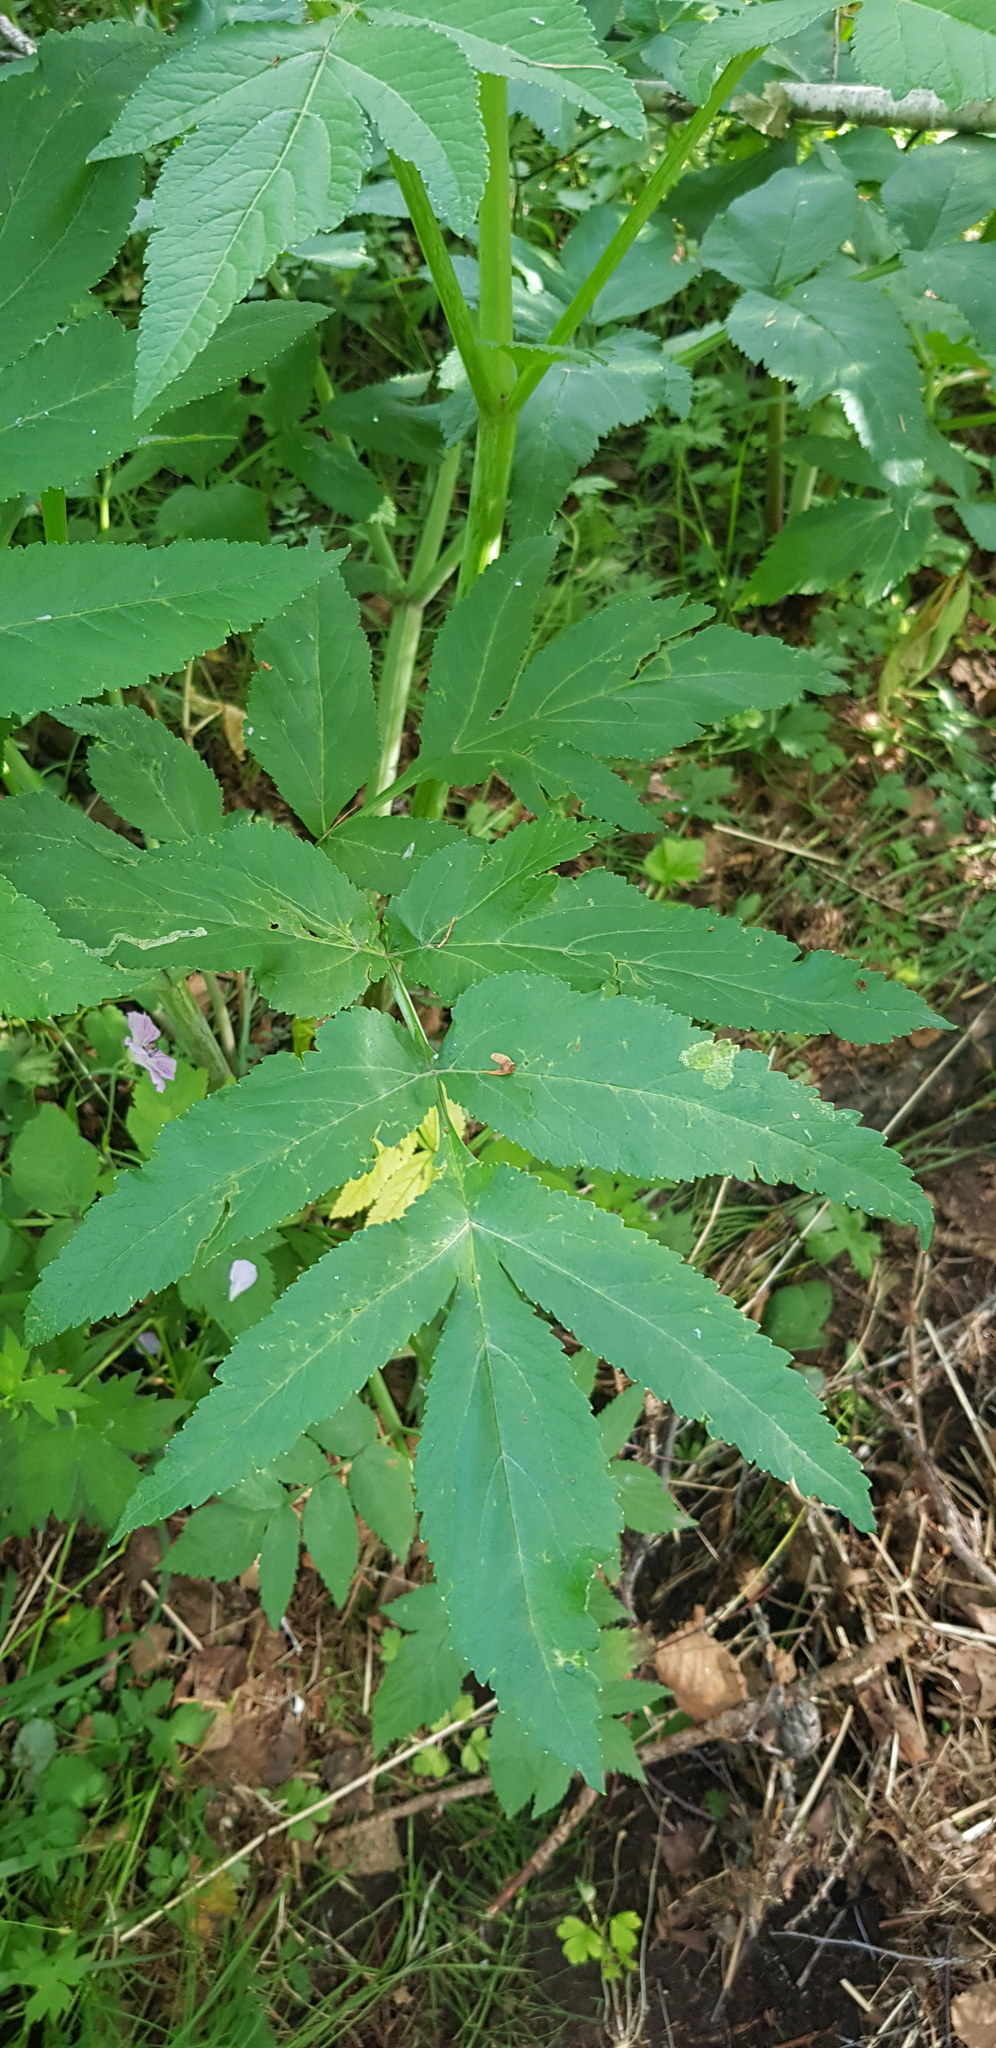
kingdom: Plantae
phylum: Tracheophyta
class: Magnoliopsida
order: Apiales
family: Apiaceae
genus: Angelica
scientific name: Angelica decurrens
